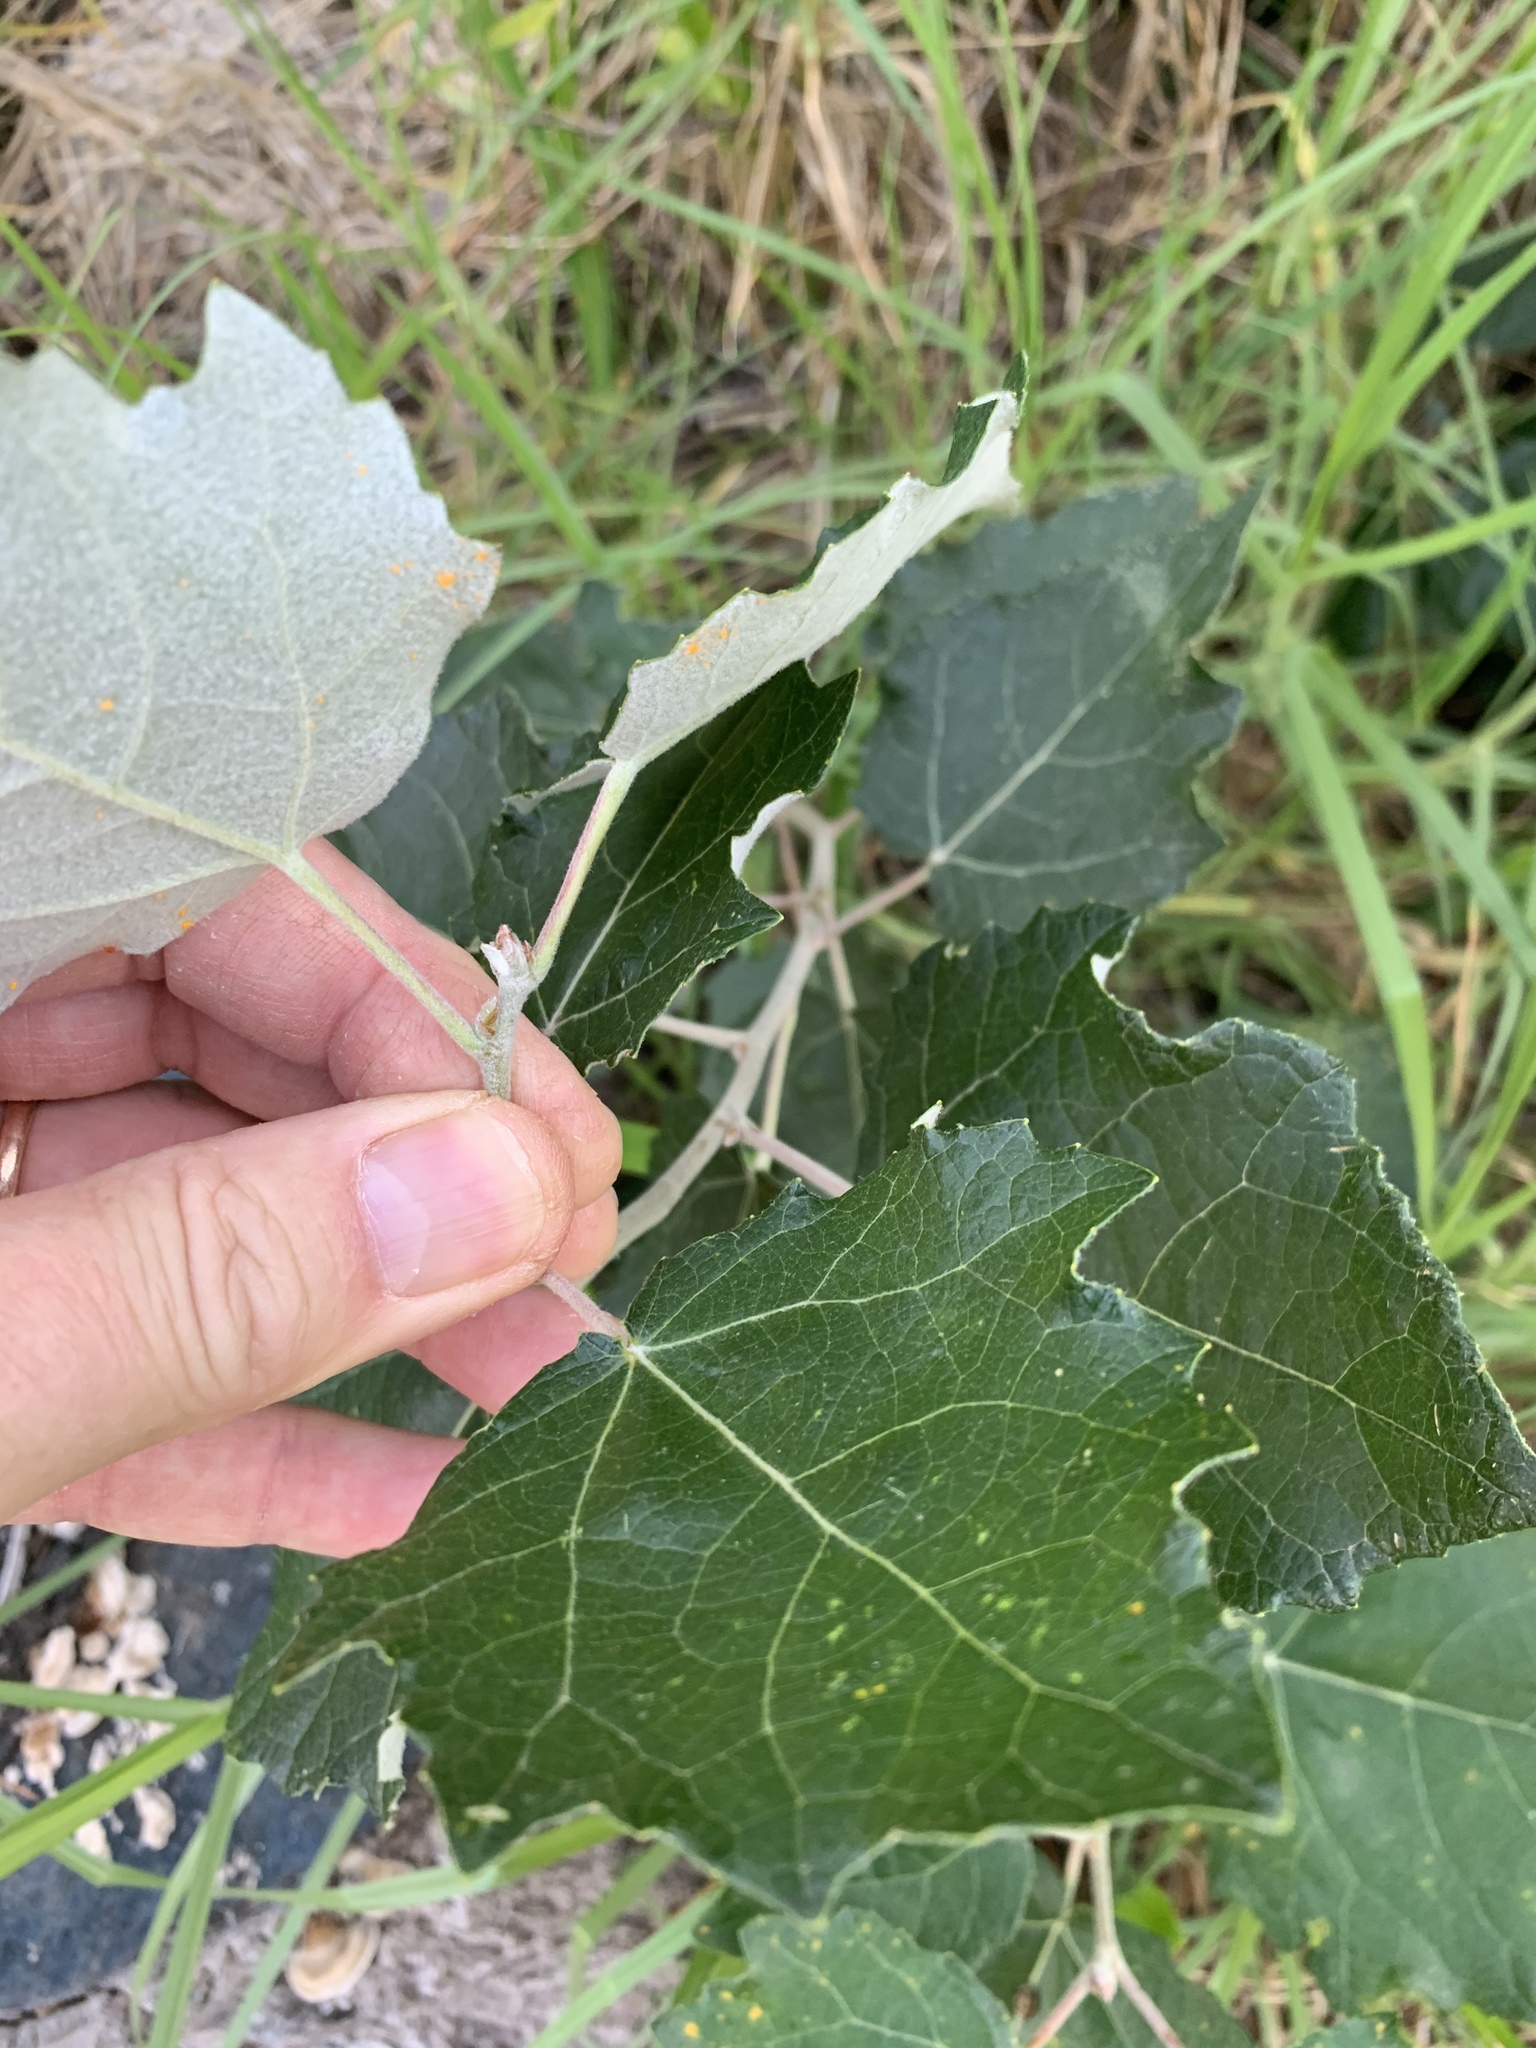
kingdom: Plantae
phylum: Tracheophyta
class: Magnoliopsida
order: Malpighiales
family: Salicaceae
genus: Populus
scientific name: Populus canescens
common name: Gray poplar
